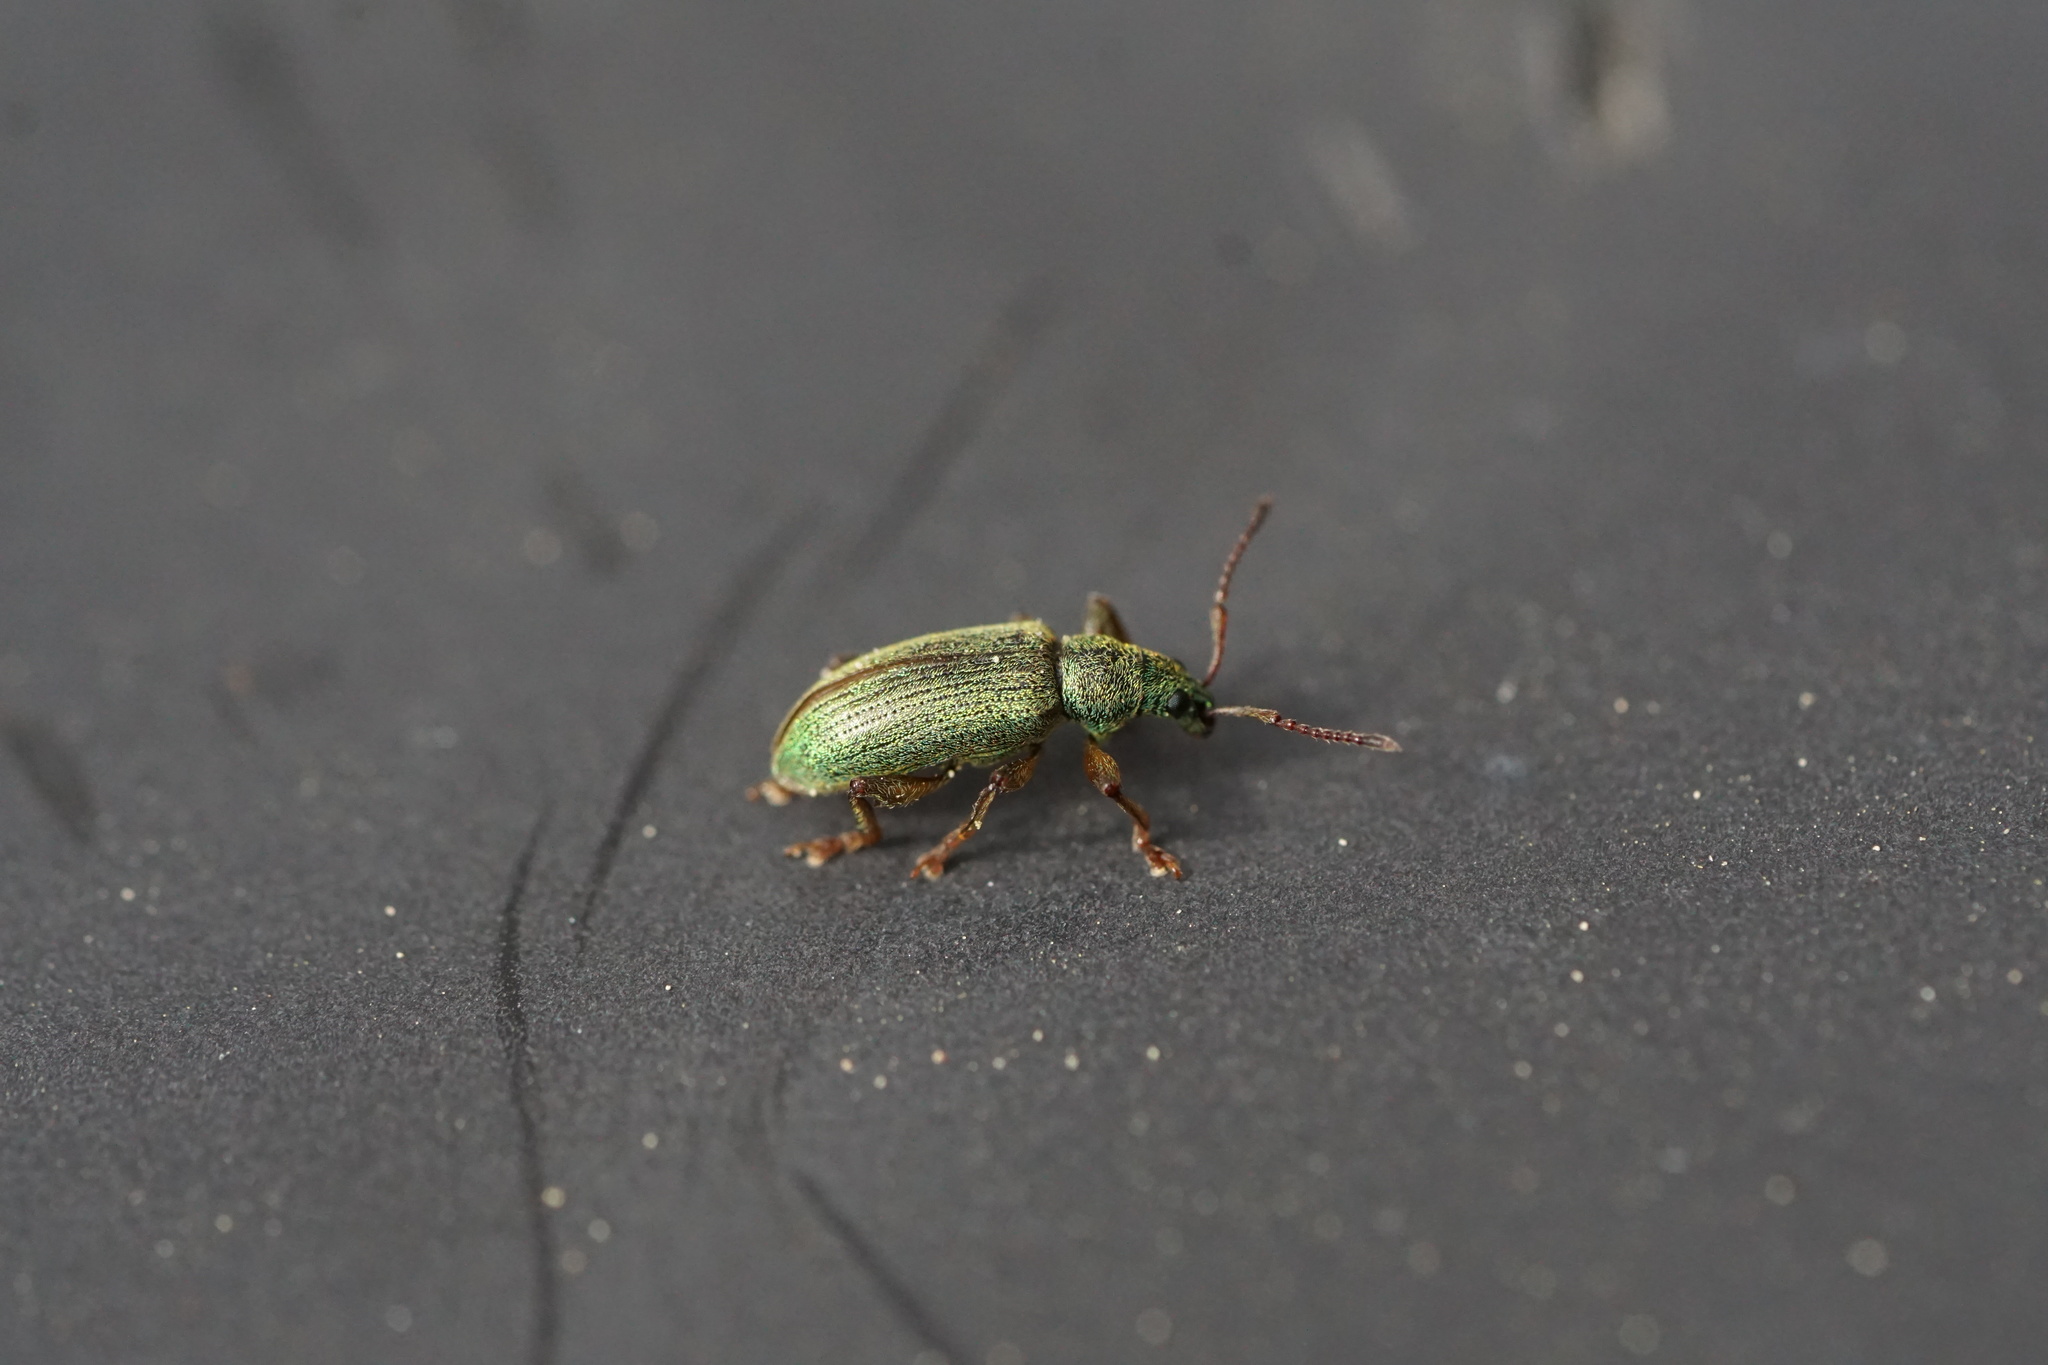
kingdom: Animalia
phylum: Arthropoda
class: Insecta
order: Coleoptera
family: Curculionidae
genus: Parascythopus
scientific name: Parascythopus intrusus
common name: Weevil
